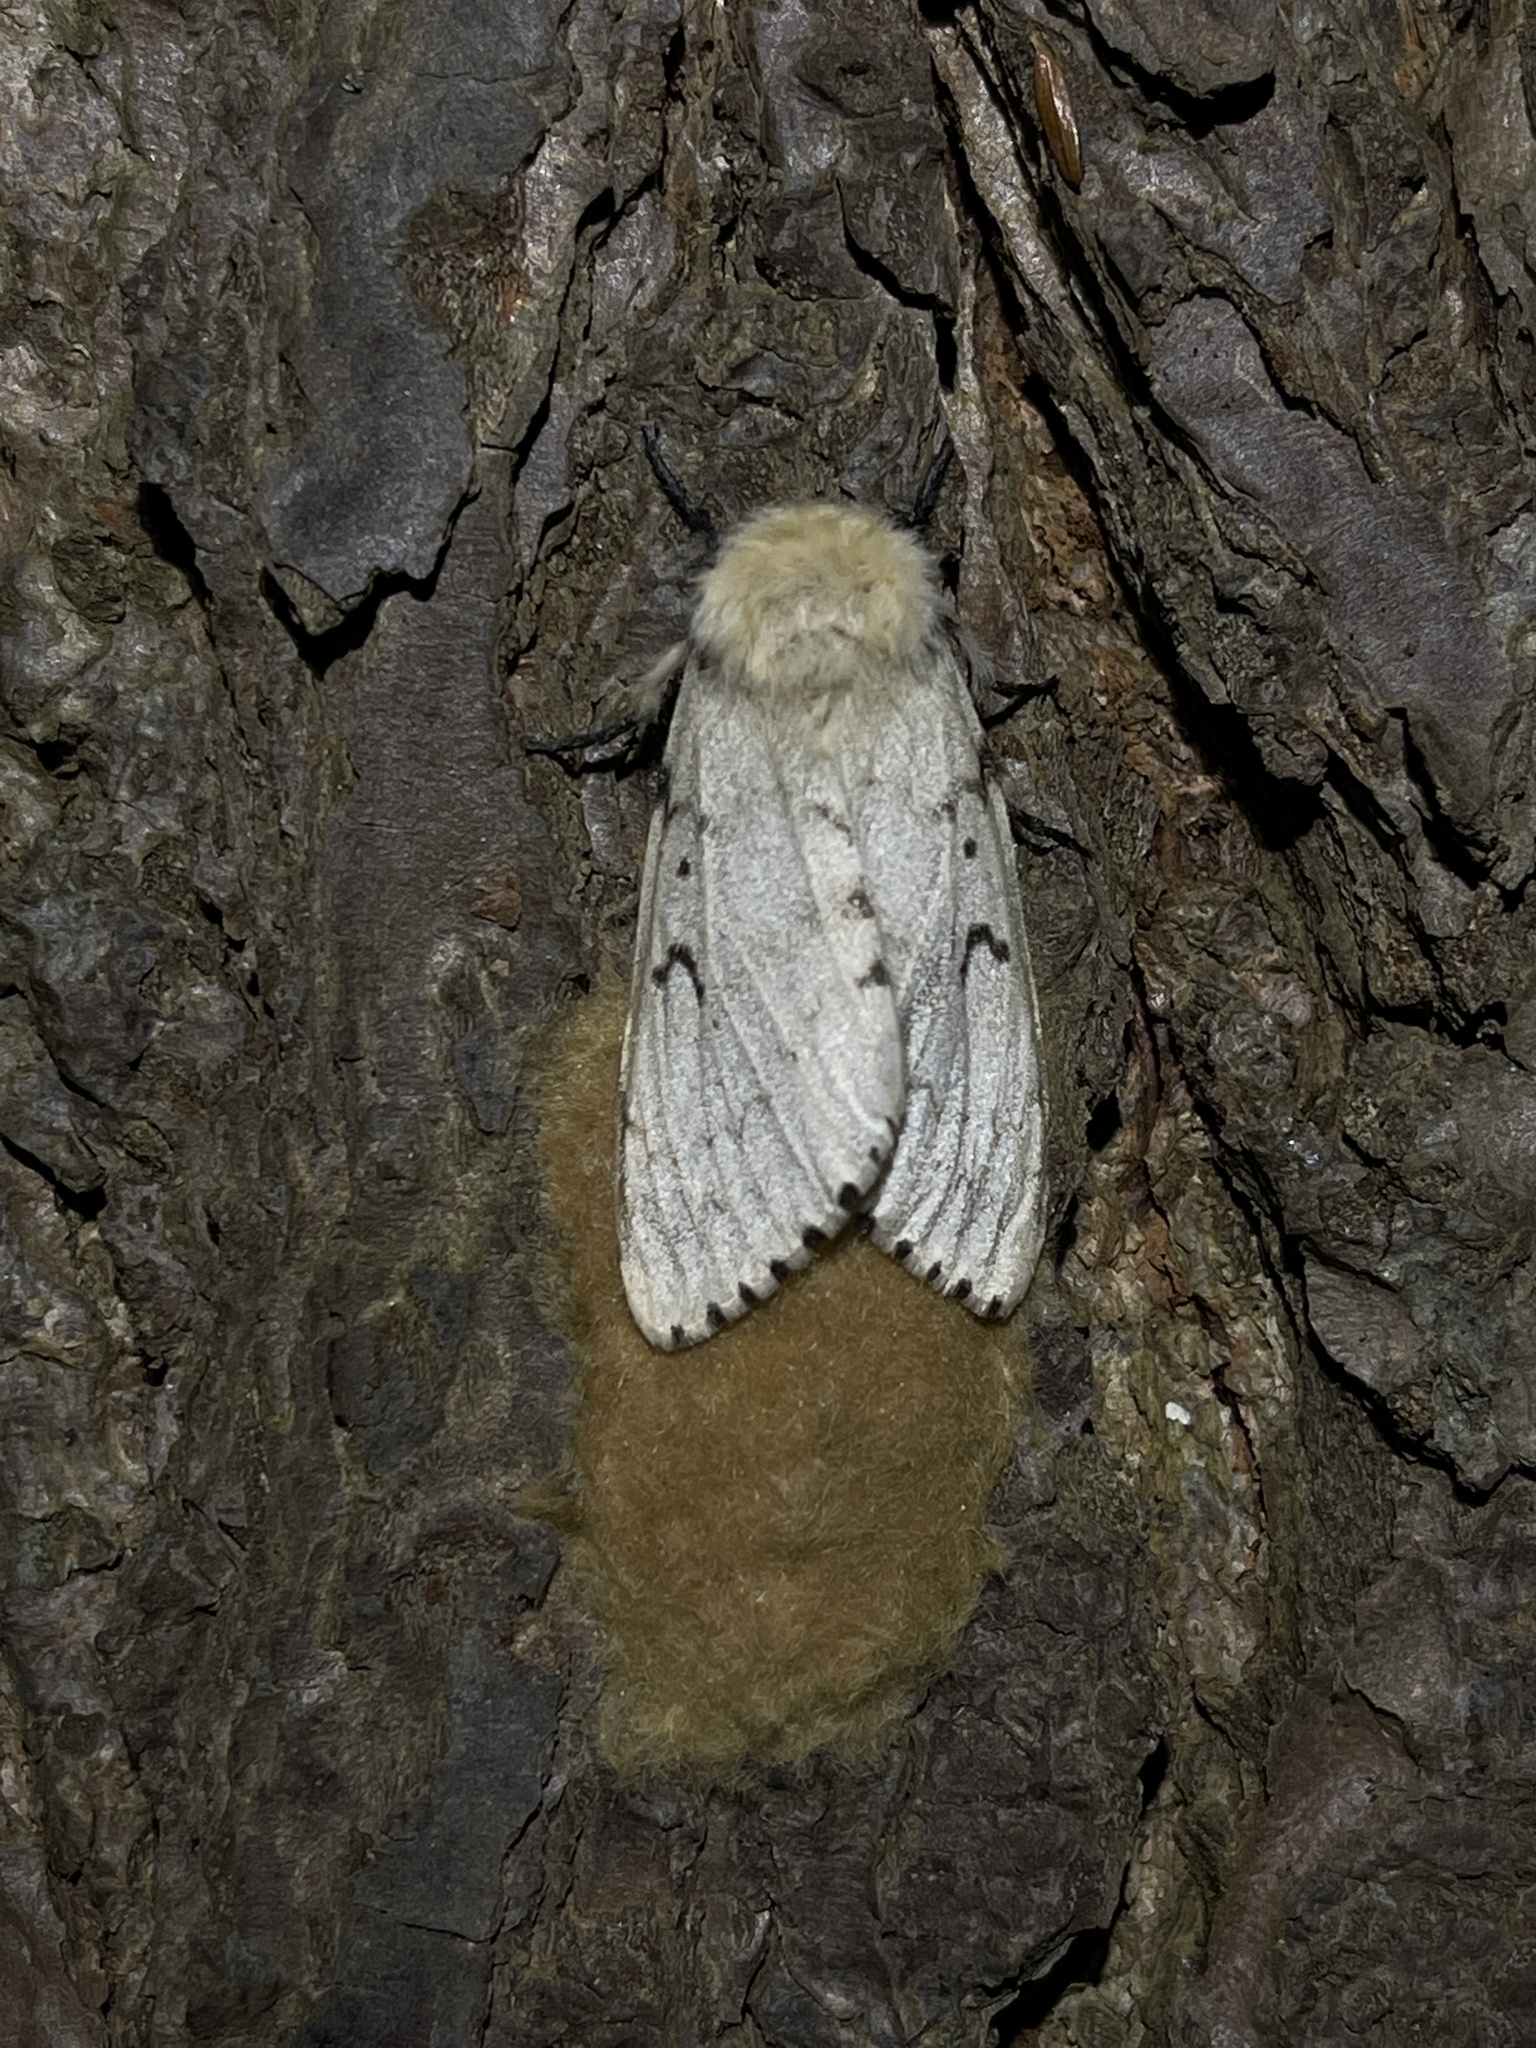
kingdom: Animalia
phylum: Arthropoda
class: Insecta
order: Lepidoptera
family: Erebidae
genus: Lymantria
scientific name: Lymantria dispar
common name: Gypsy moth
